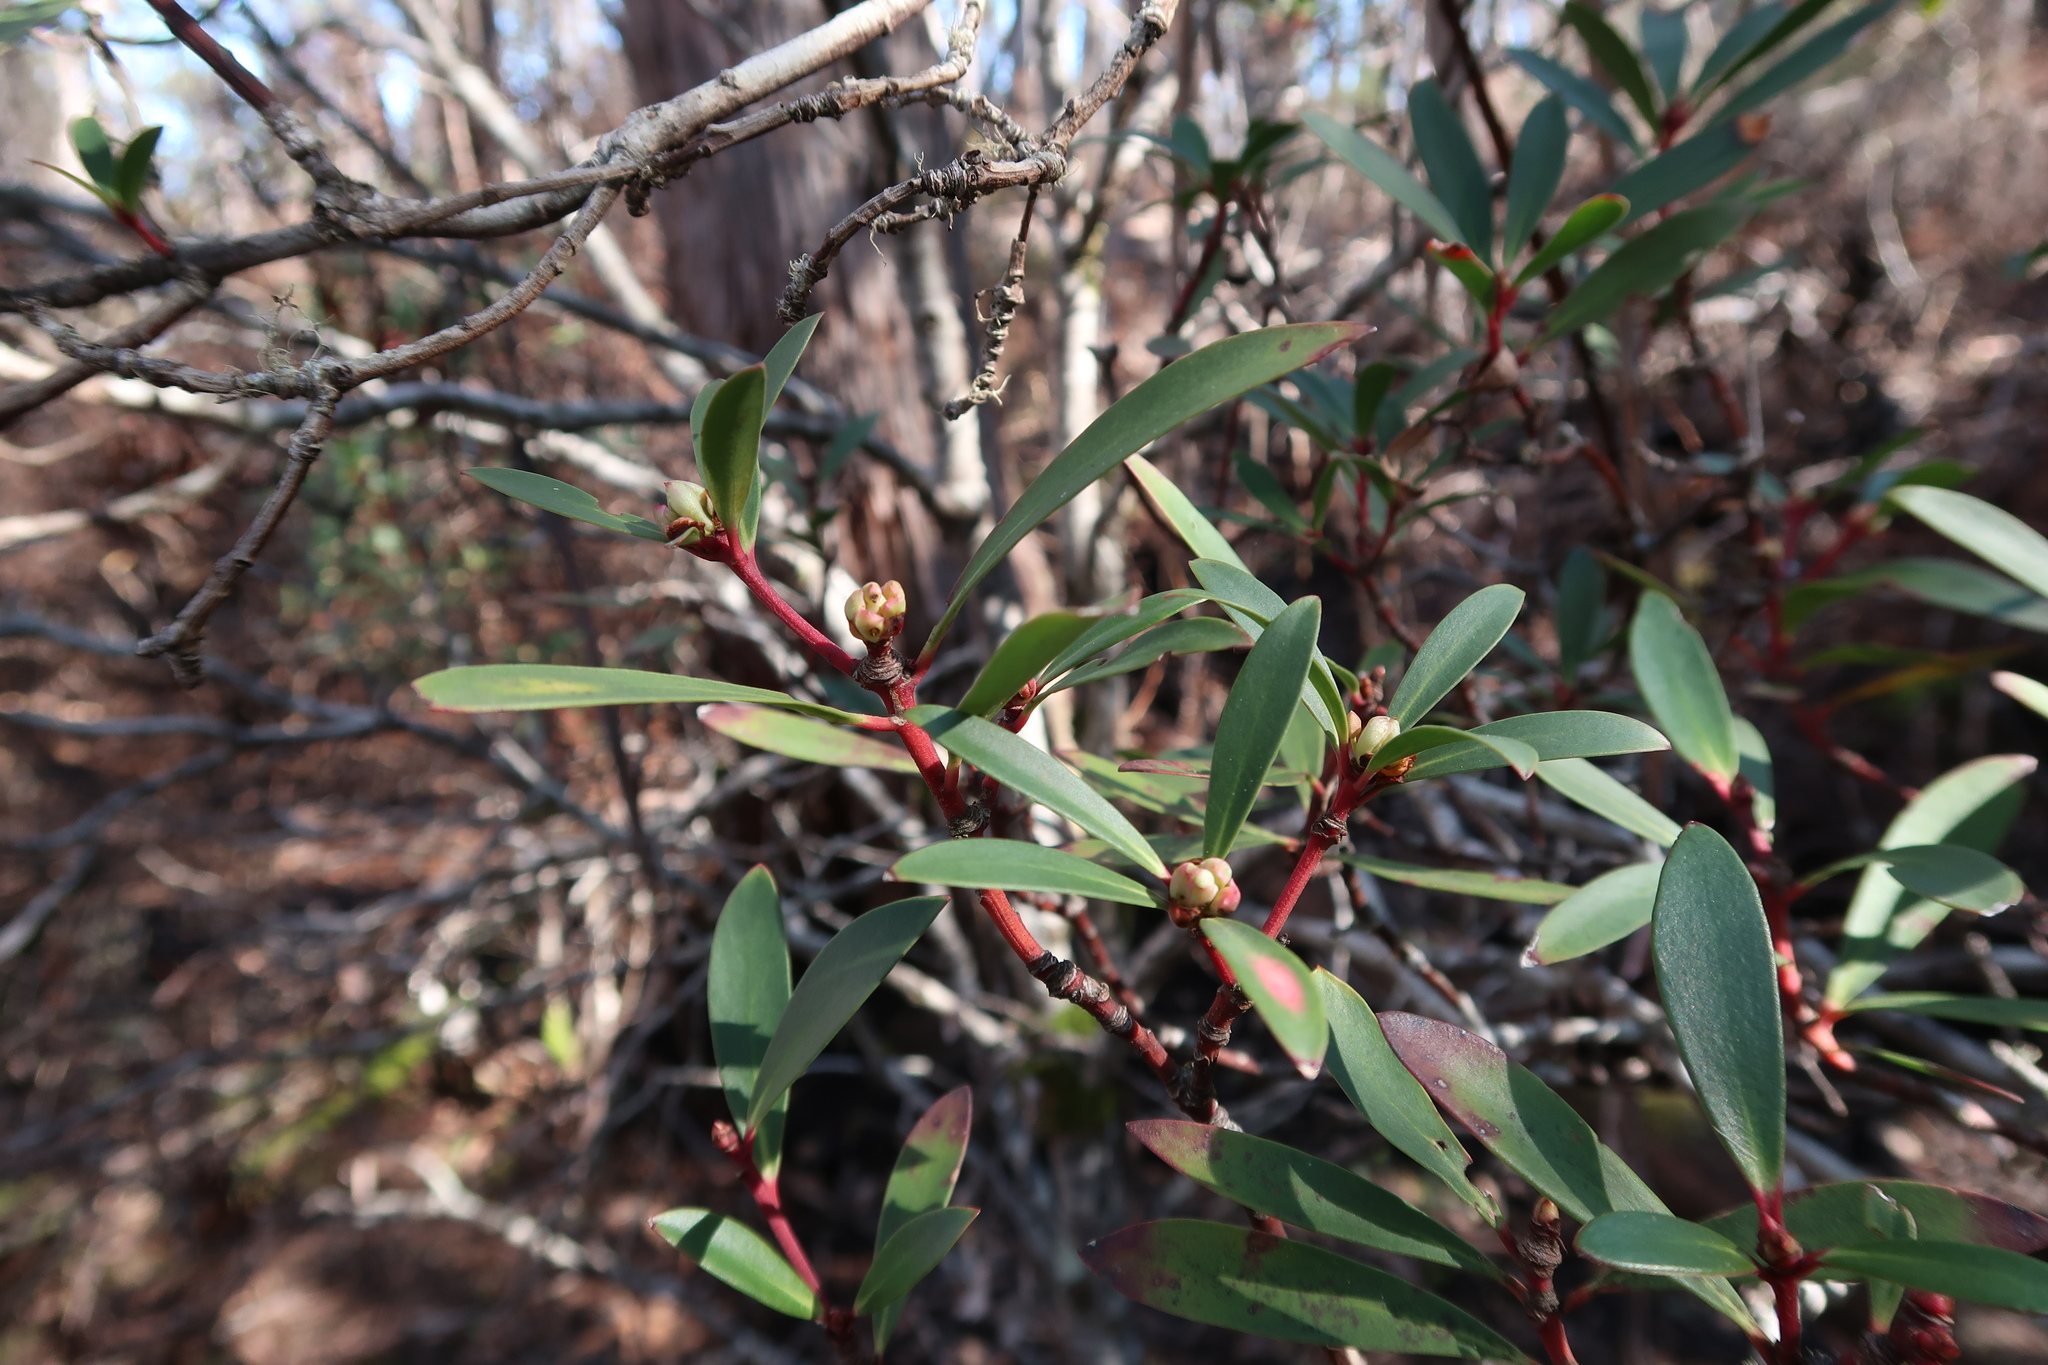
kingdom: Plantae
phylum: Tracheophyta
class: Magnoliopsida
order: Canellales
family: Winteraceae
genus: Drimys
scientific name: Drimys aromatica
